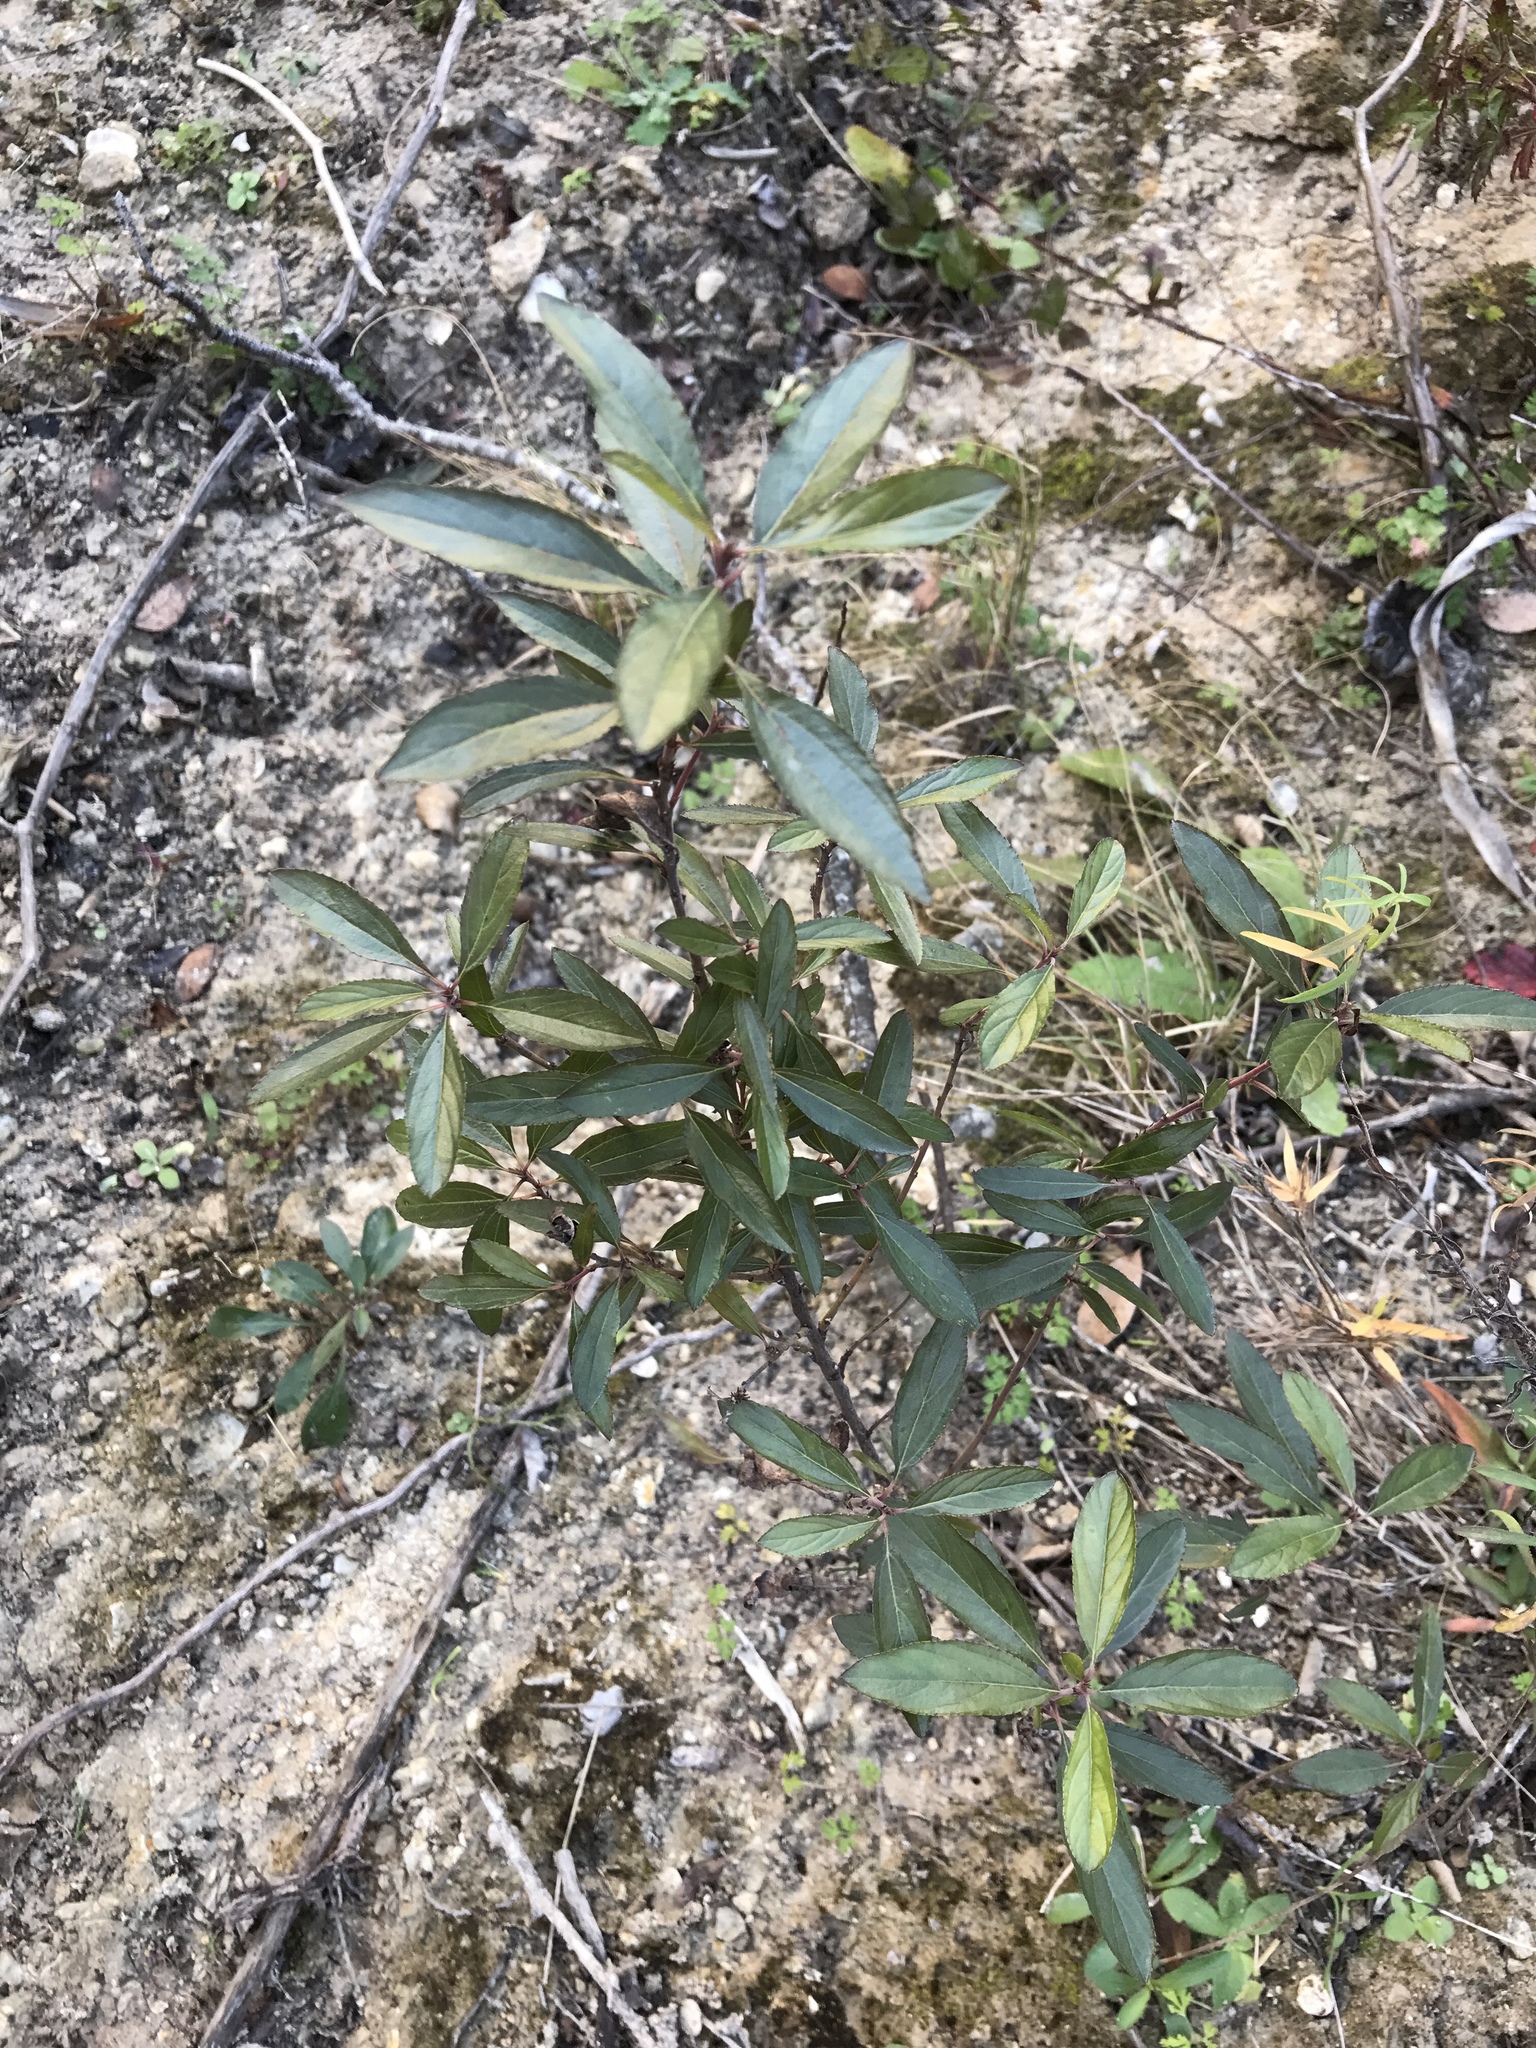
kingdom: Plantae
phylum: Tracheophyta
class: Magnoliopsida
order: Rosales
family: Rhamnaceae
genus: Ceanothus
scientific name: Ceanothus herbaceus
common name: Inland ceanothus
